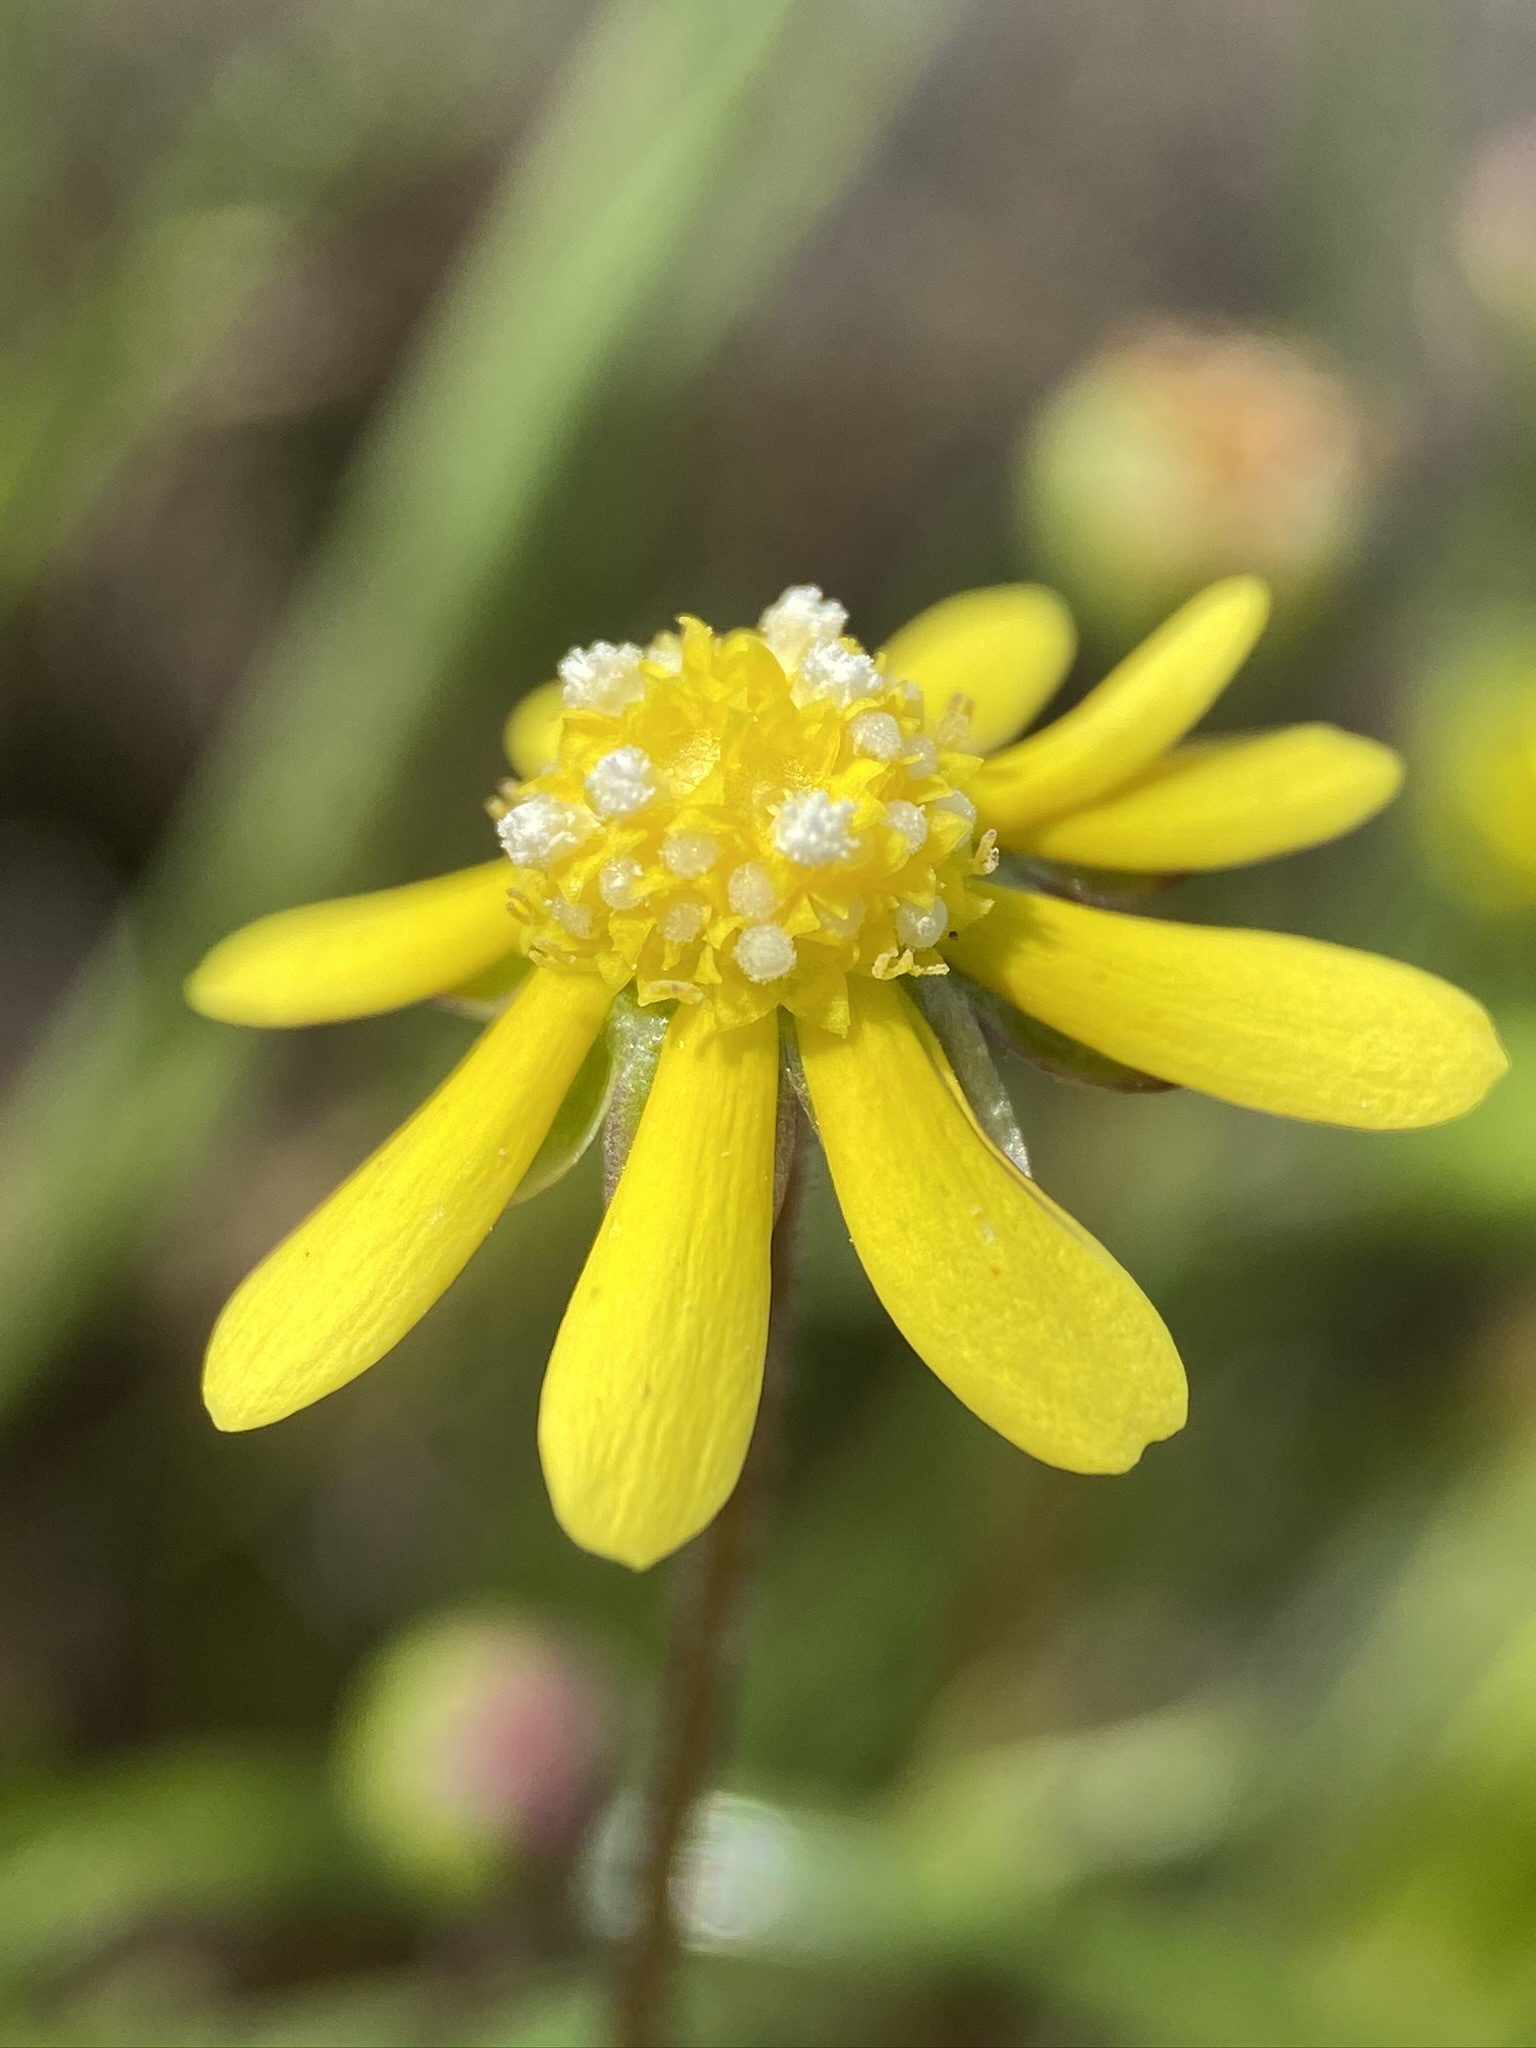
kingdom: Plantae
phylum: Tracheophyta
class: Magnoliopsida
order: Asterales
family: Asteraceae
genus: Blennosperma
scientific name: Blennosperma nanum
